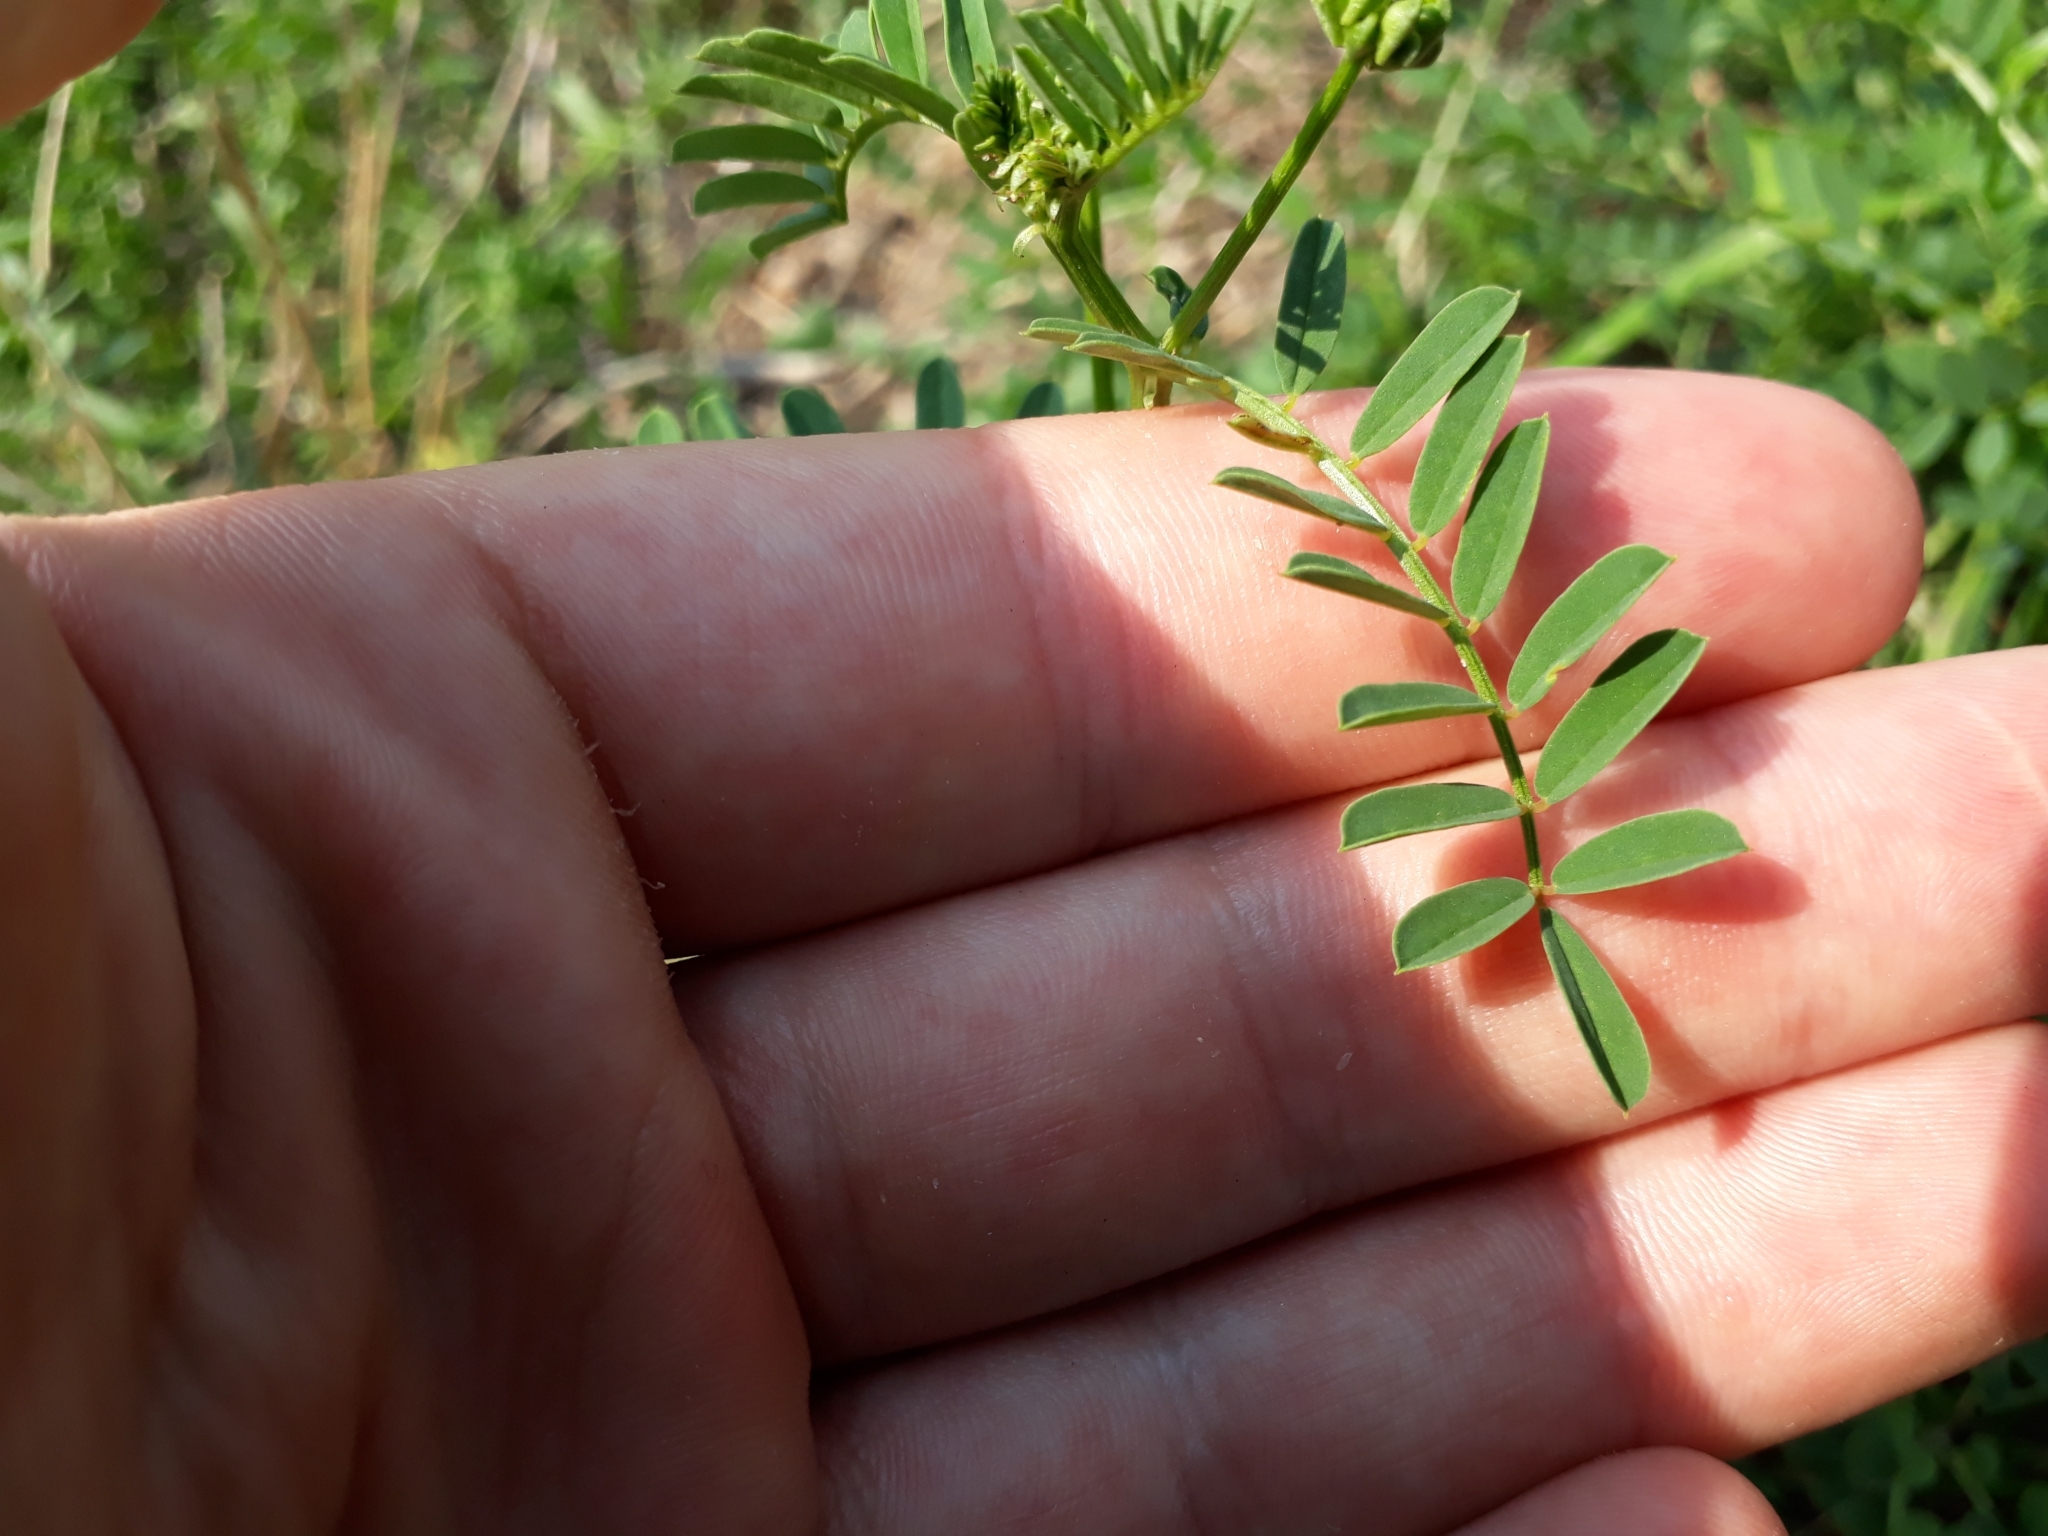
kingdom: Plantae
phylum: Tracheophyta
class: Magnoliopsida
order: Fabales
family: Fabaceae
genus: Coronilla
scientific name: Coronilla varia
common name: Crownvetch
